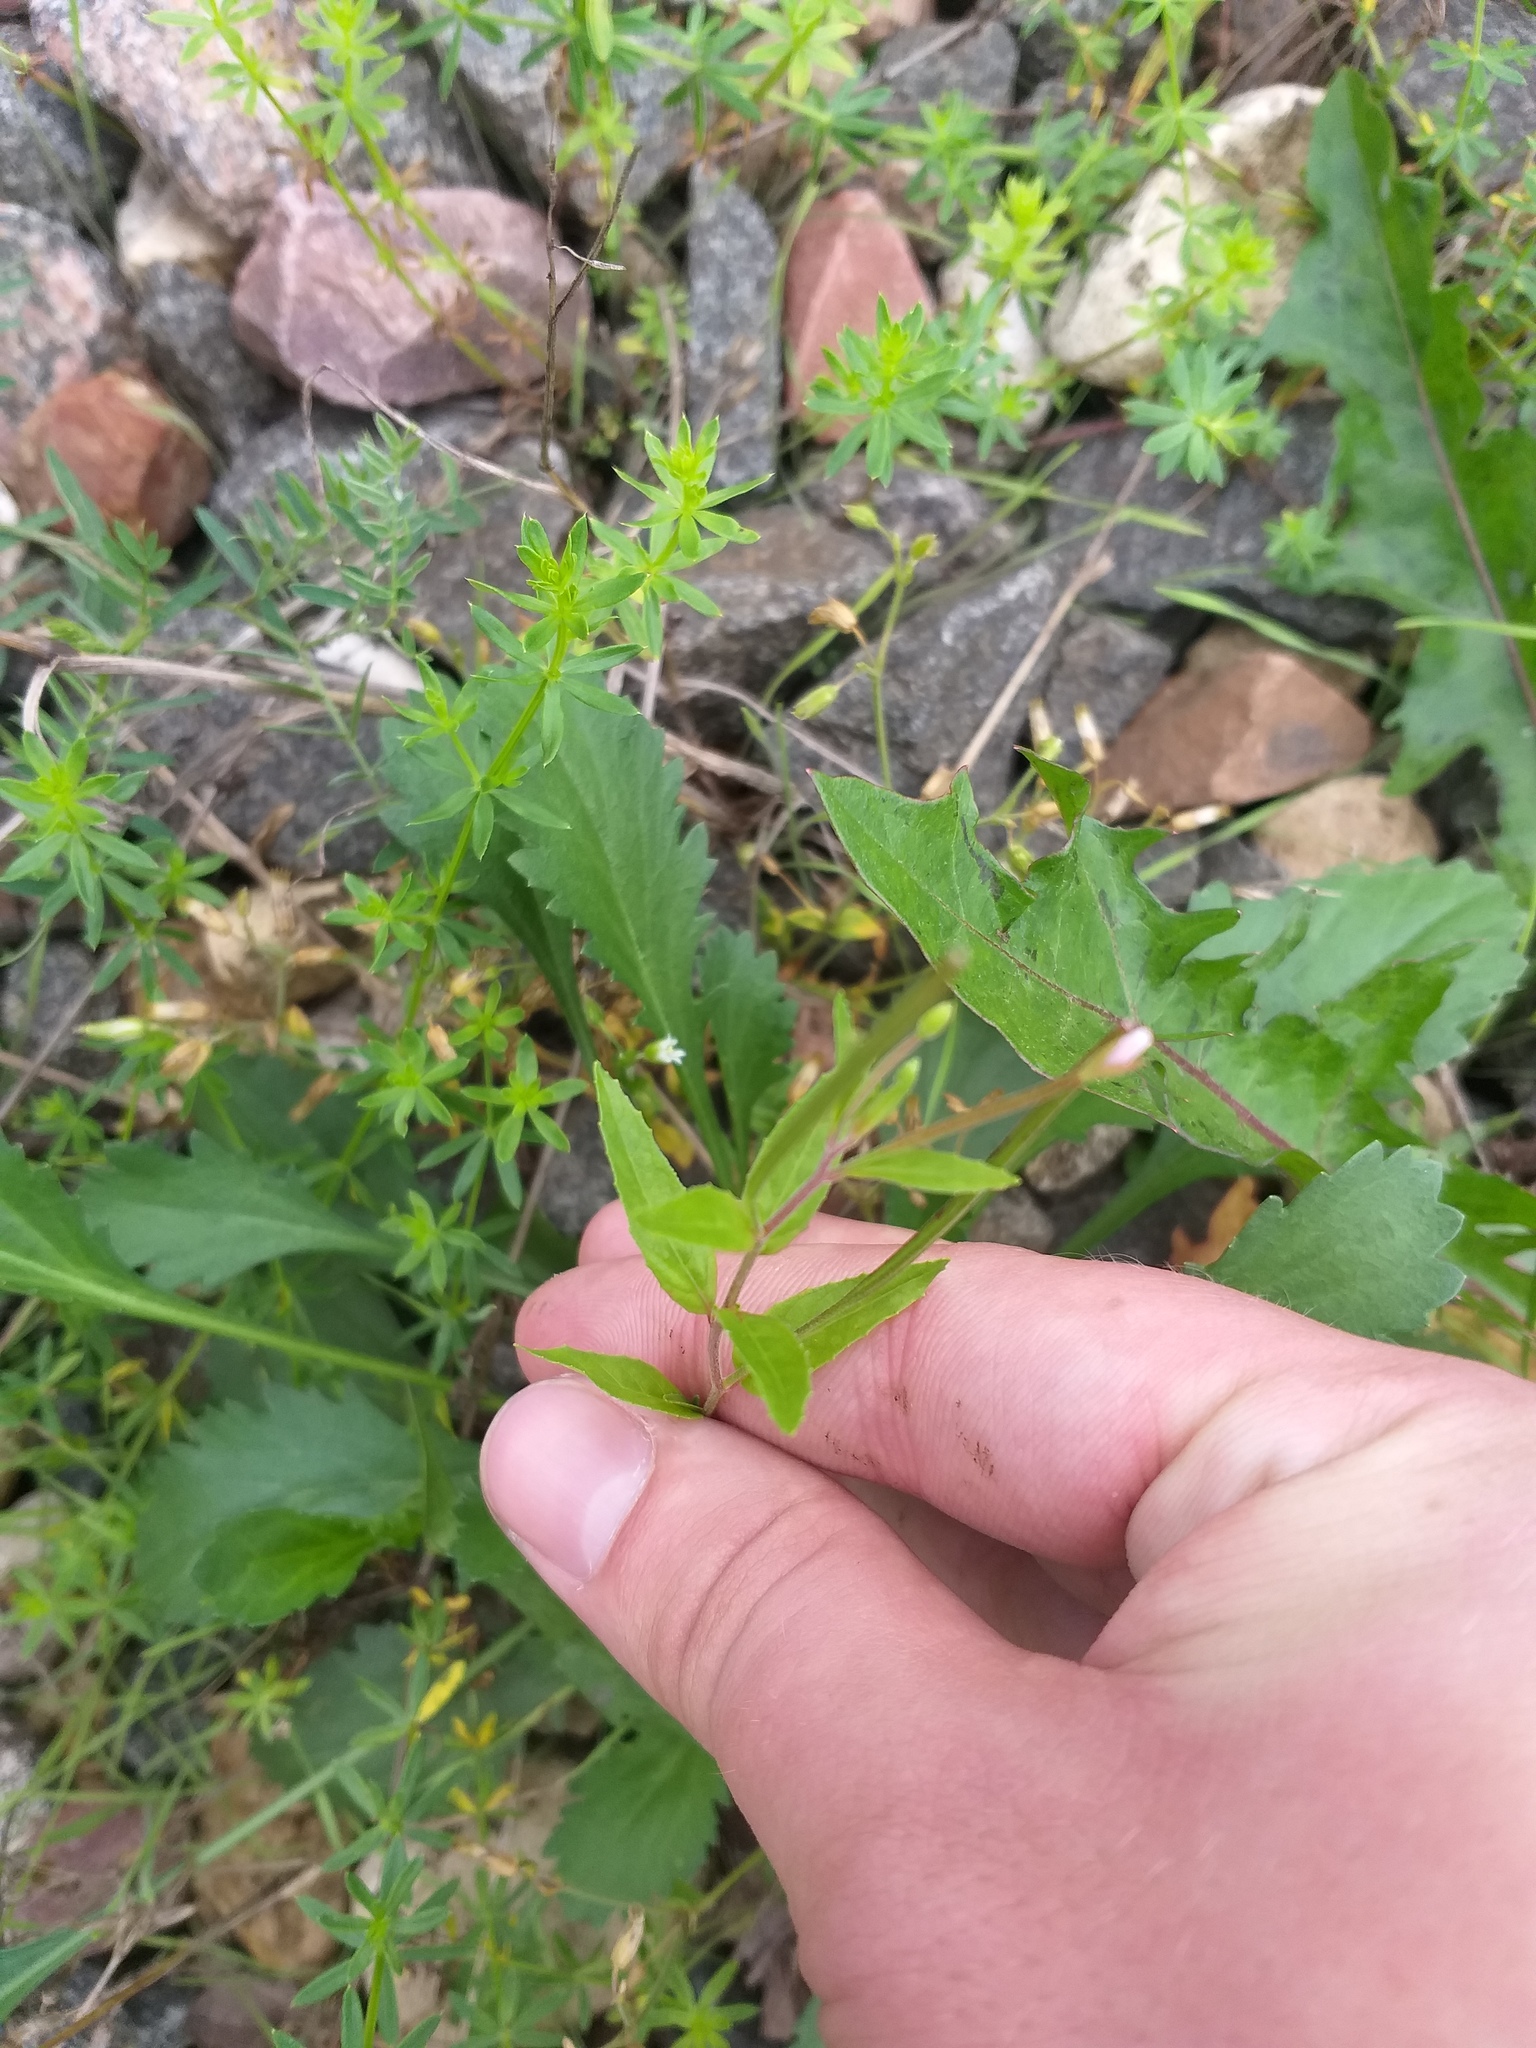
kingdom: Plantae
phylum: Tracheophyta
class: Magnoliopsida
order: Myrtales
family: Onagraceae
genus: Epilobium
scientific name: Epilobium pseudorubescens
